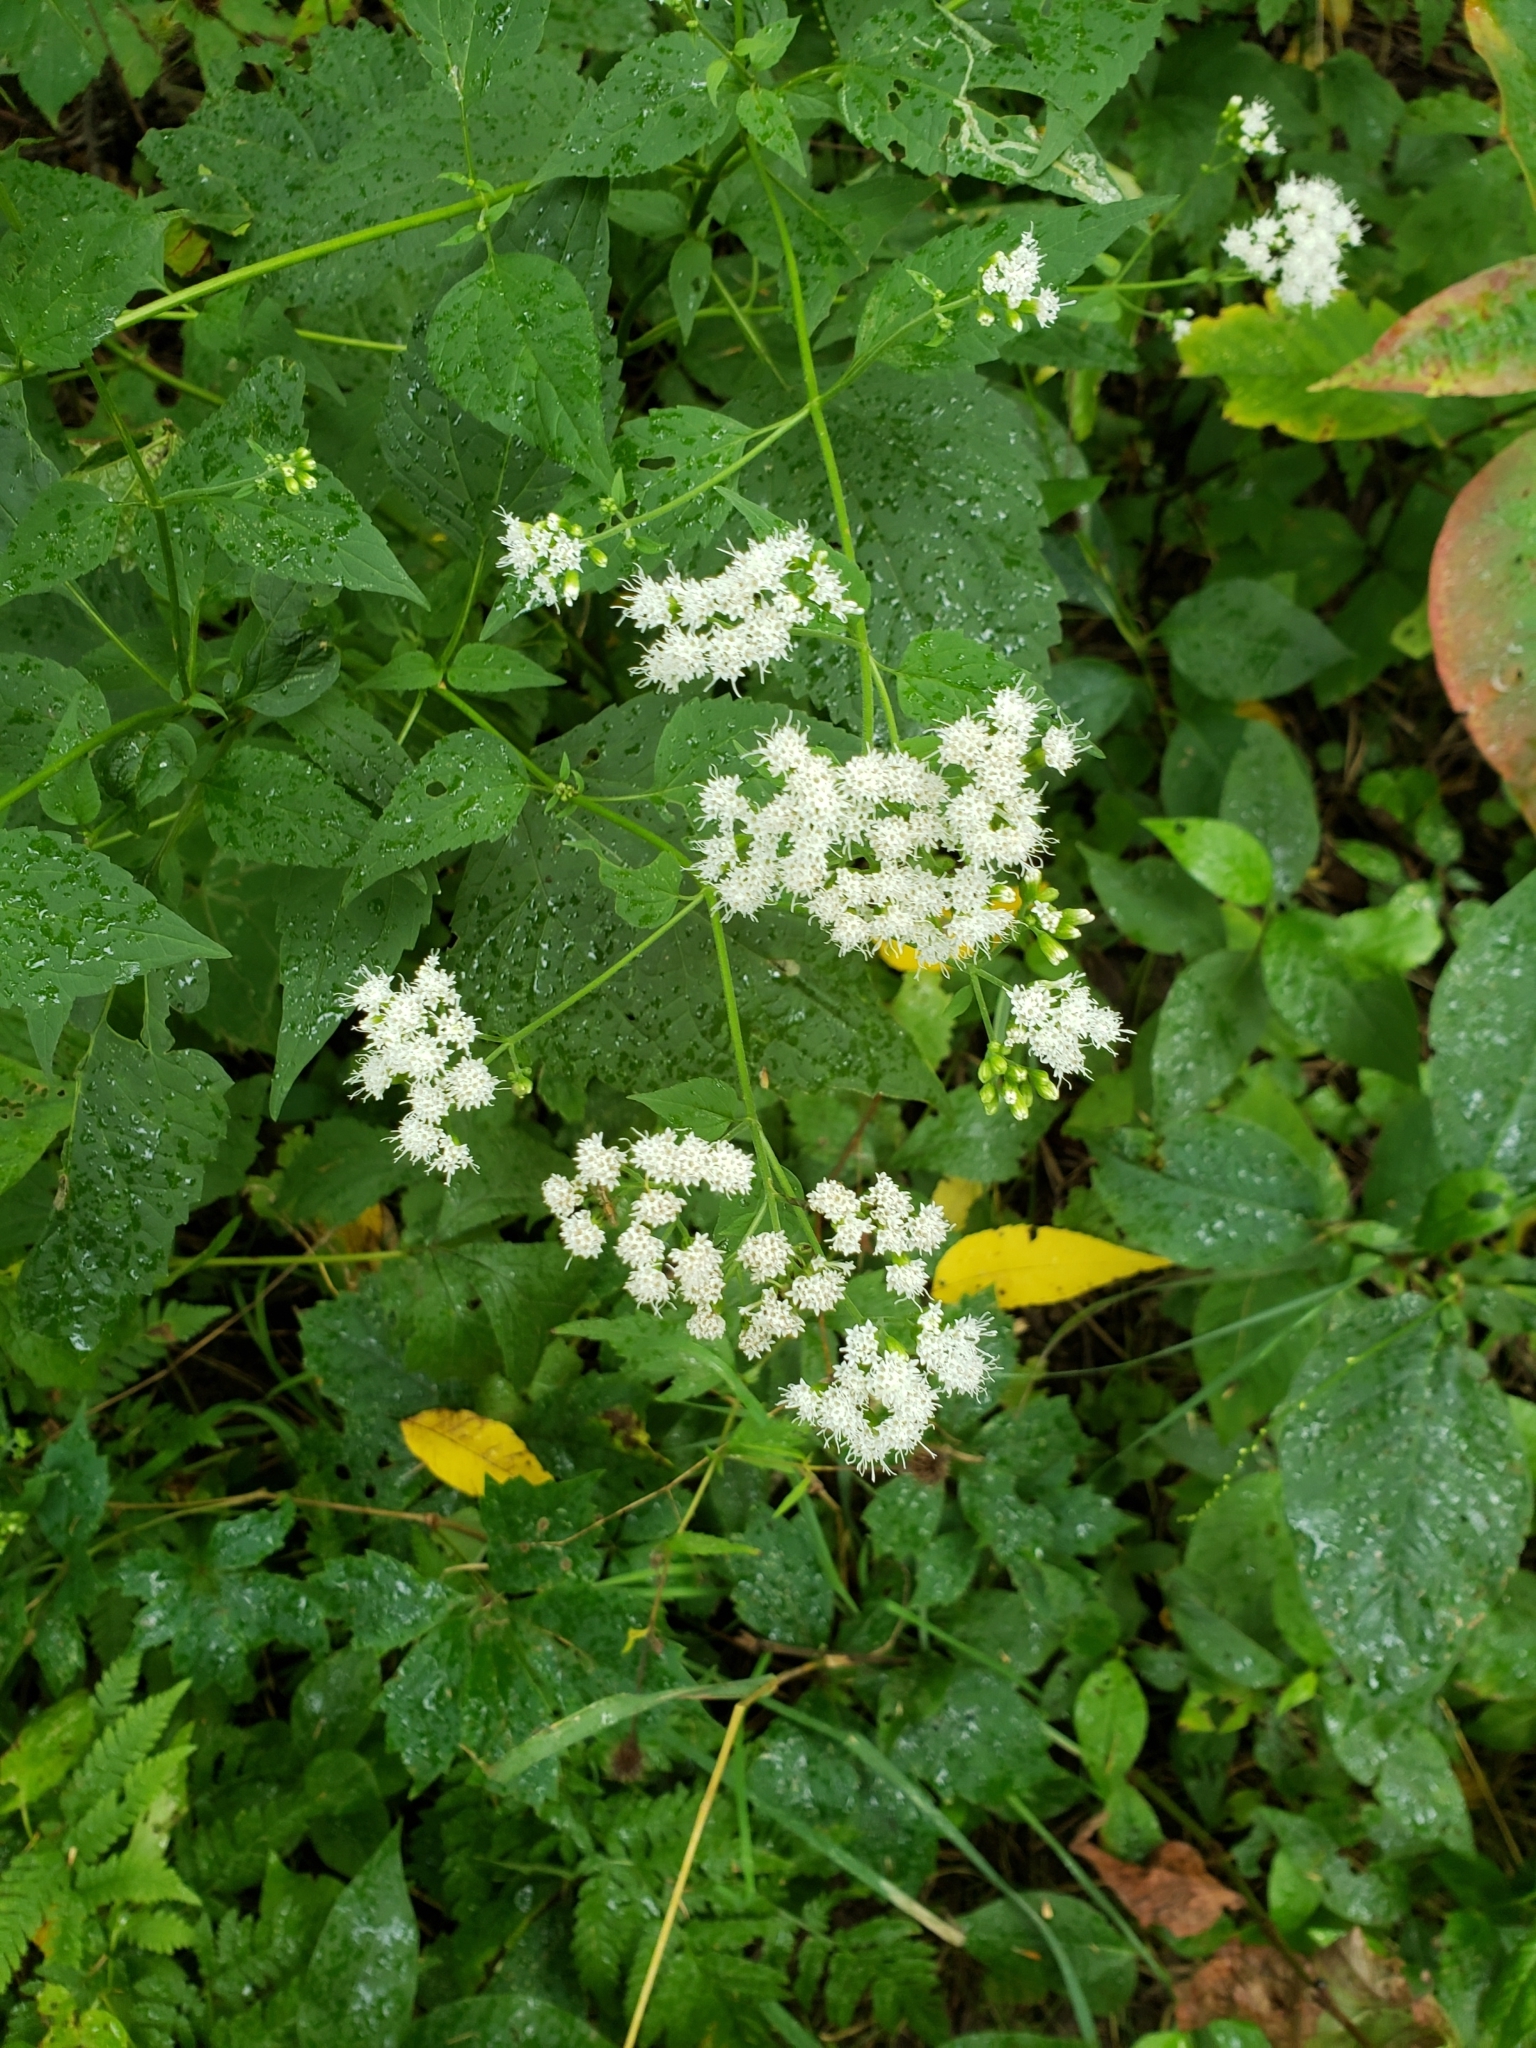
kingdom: Plantae
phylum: Tracheophyta
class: Magnoliopsida
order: Asterales
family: Asteraceae
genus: Ageratina
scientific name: Ageratina altissima
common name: White snakeroot
